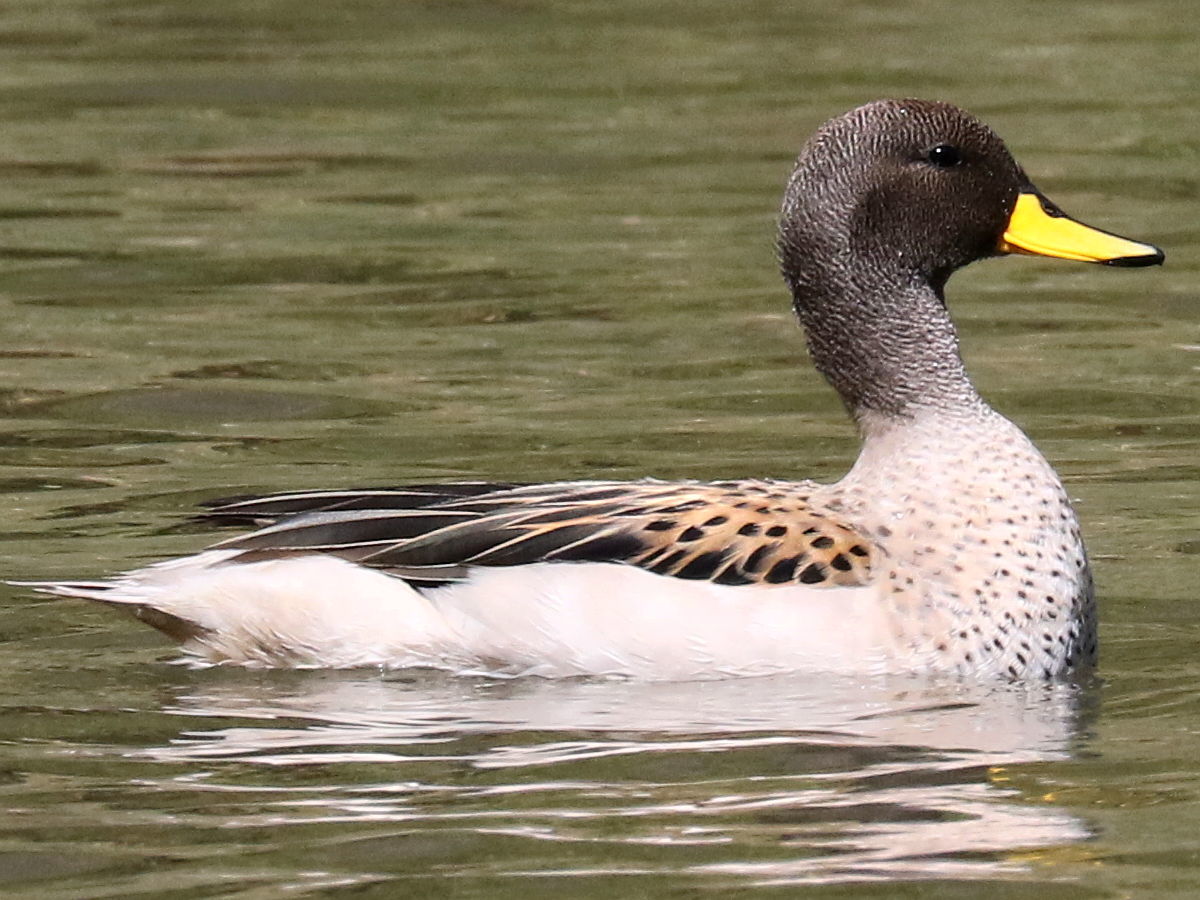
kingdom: Animalia
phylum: Chordata
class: Aves
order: Anseriformes
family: Anatidae
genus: Anas
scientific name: Anas flavirostris
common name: Yellow-billed teal
